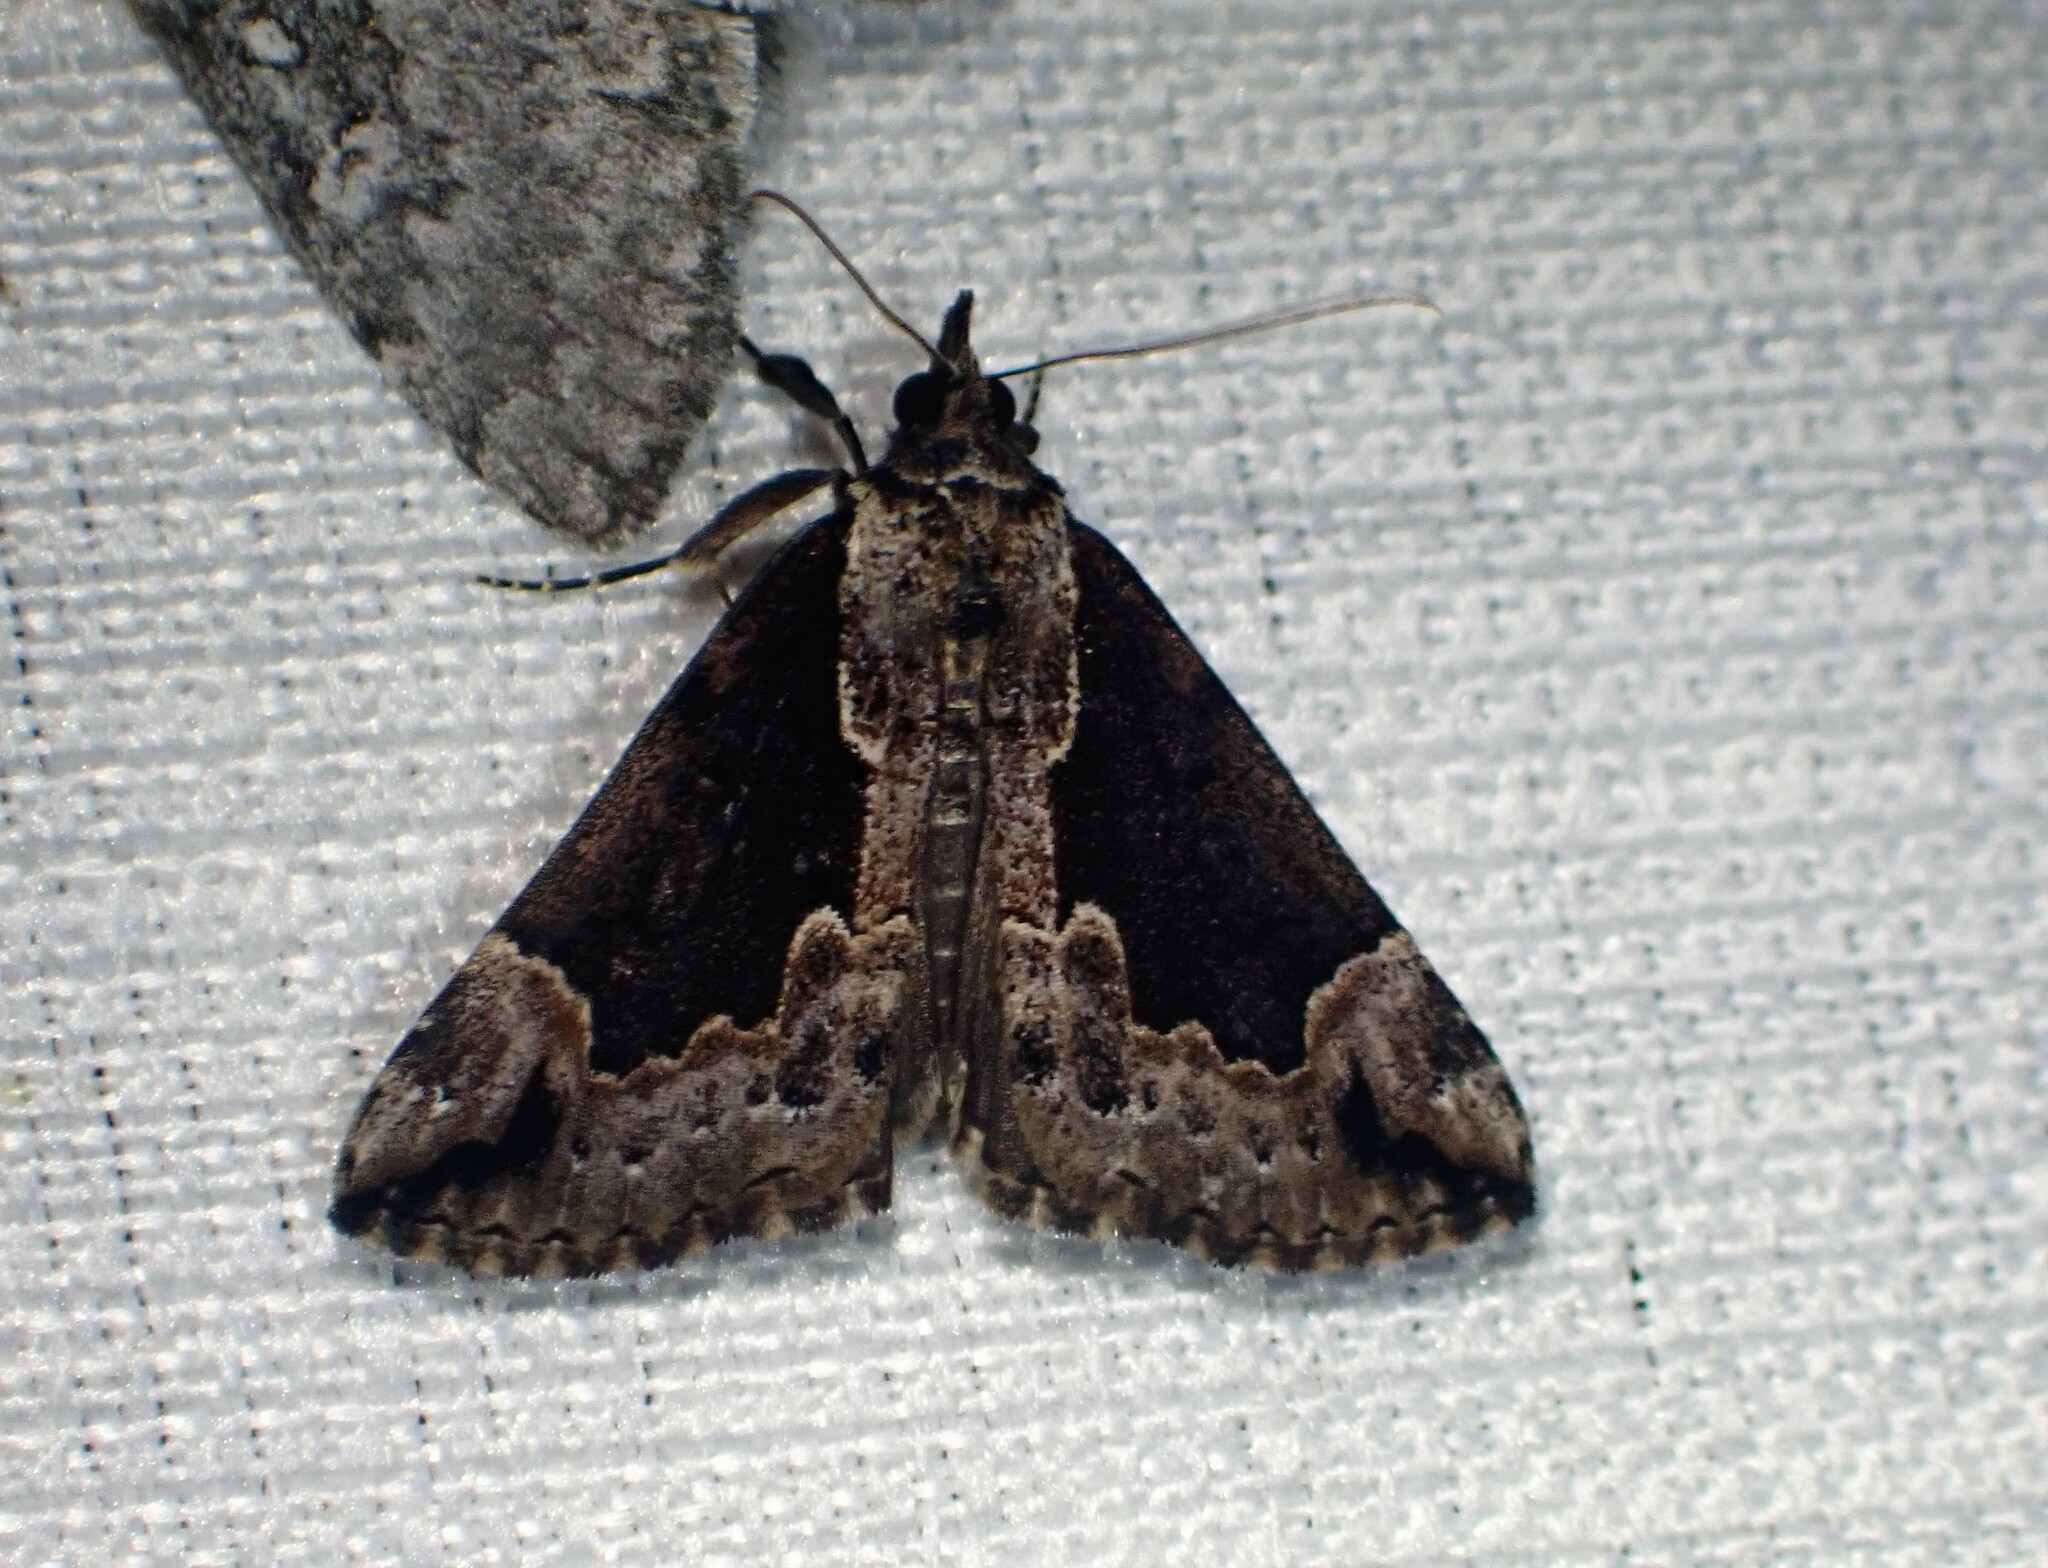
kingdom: Animalia
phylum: Arthropoda
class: Insecta
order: Lepidoptera
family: Erebidae
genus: Hypena
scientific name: Hypena baltimoralis
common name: Baltimore snout
